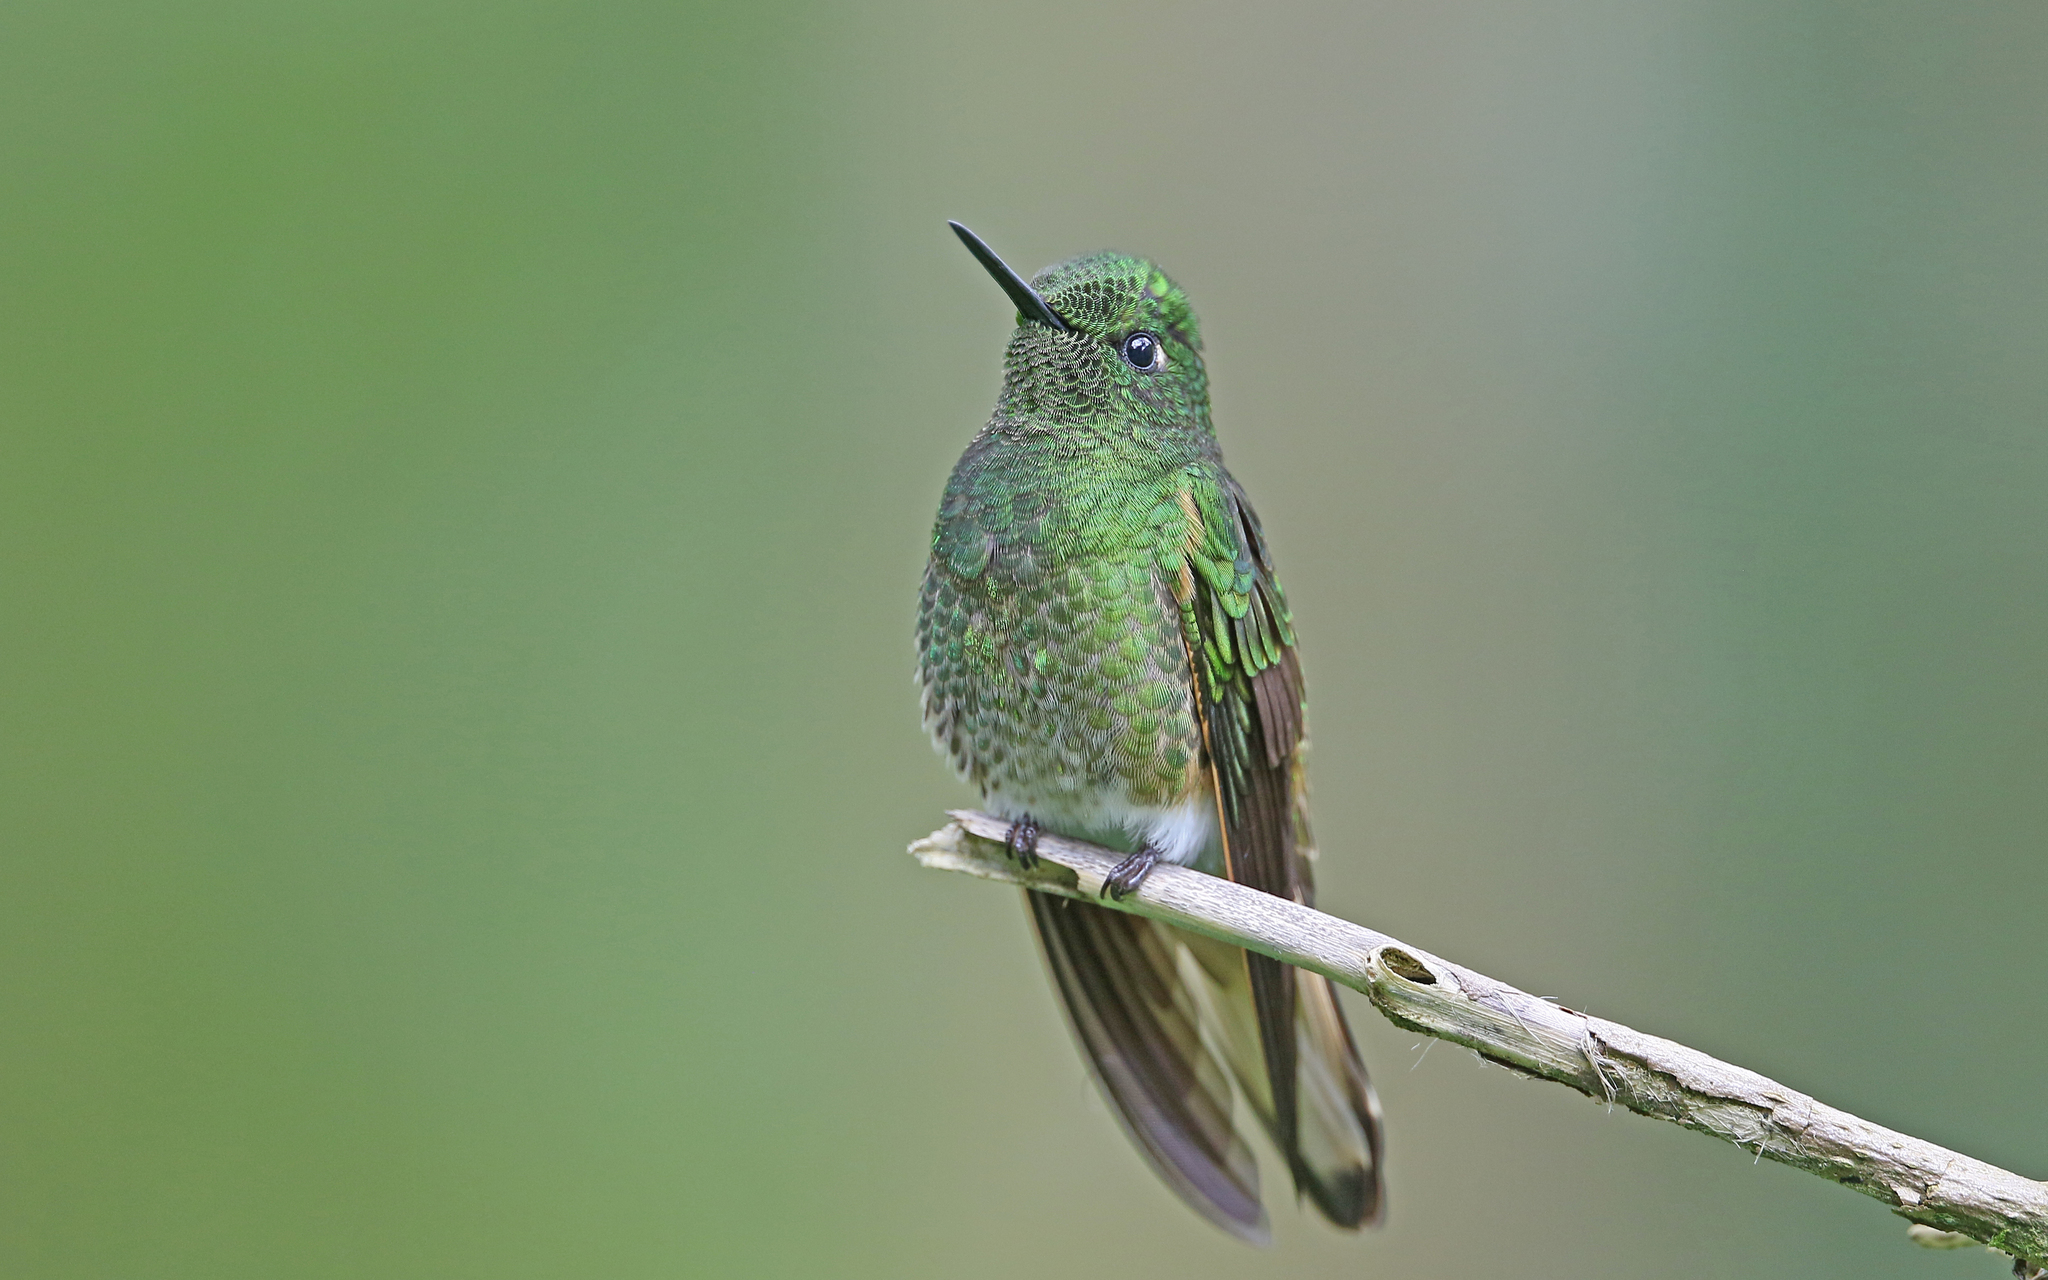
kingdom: Animalia
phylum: Chordata
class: Aves
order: Apodiformes
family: Trochilidae
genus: Boissonneaua
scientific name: Boissonneaua flavescens
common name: Buff-tailed coronet
